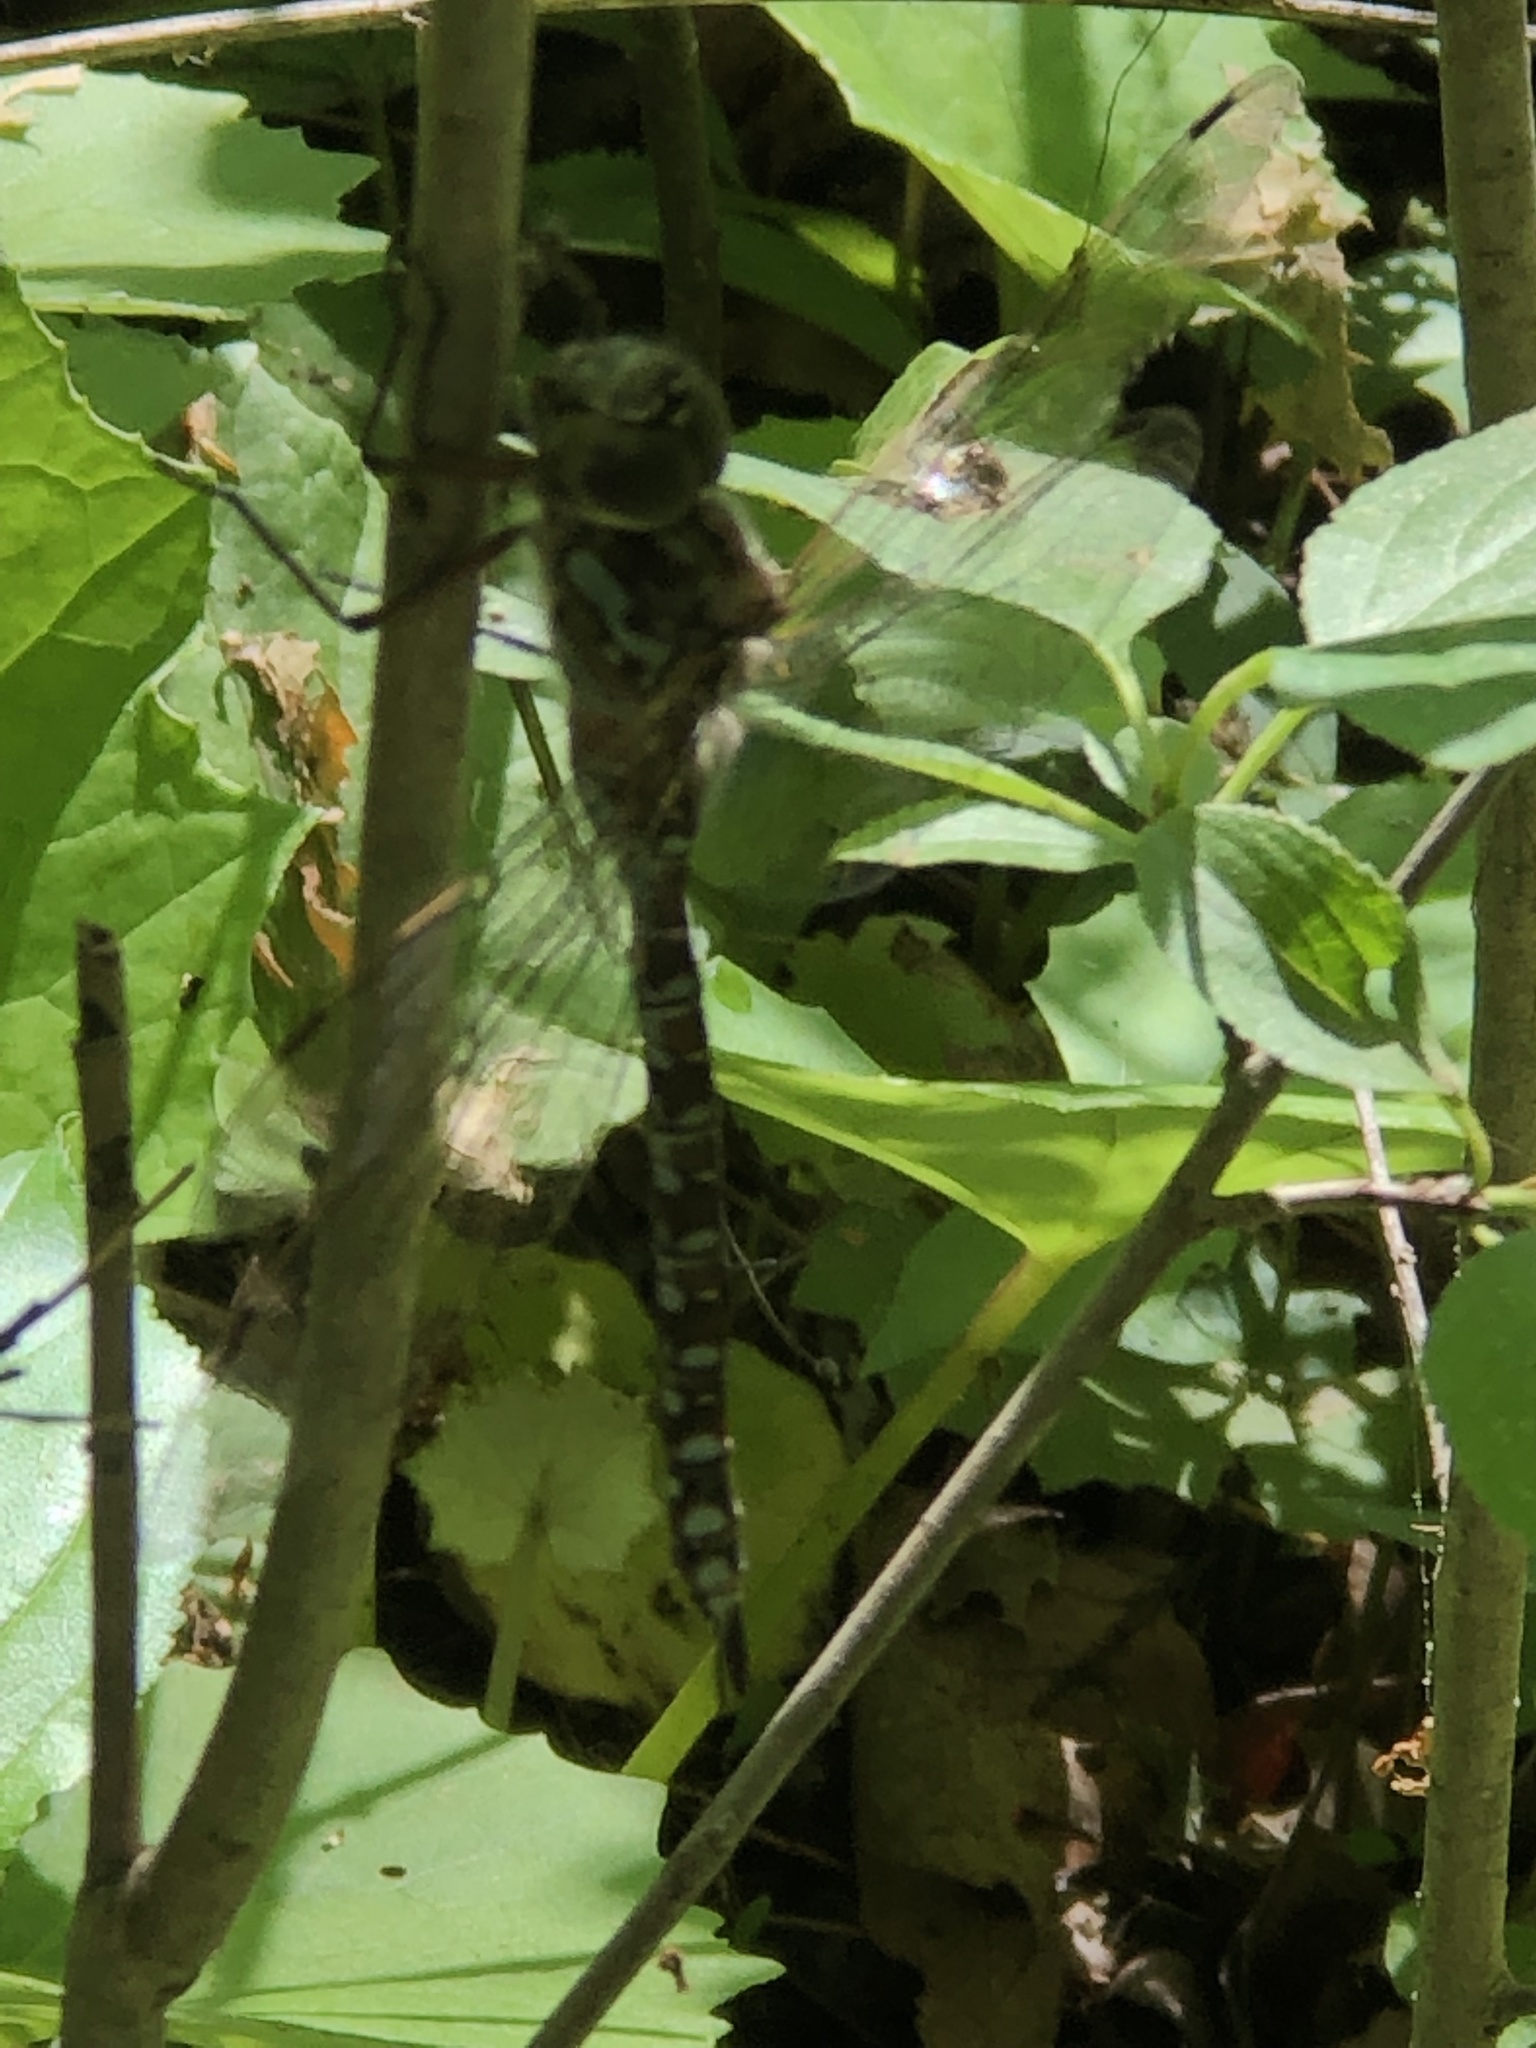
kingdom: Animalia
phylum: Arthropoda
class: Insecta
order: Odonata
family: Aeshnidae
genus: Aeshna
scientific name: Aeshna canadensis
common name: Canada darner
